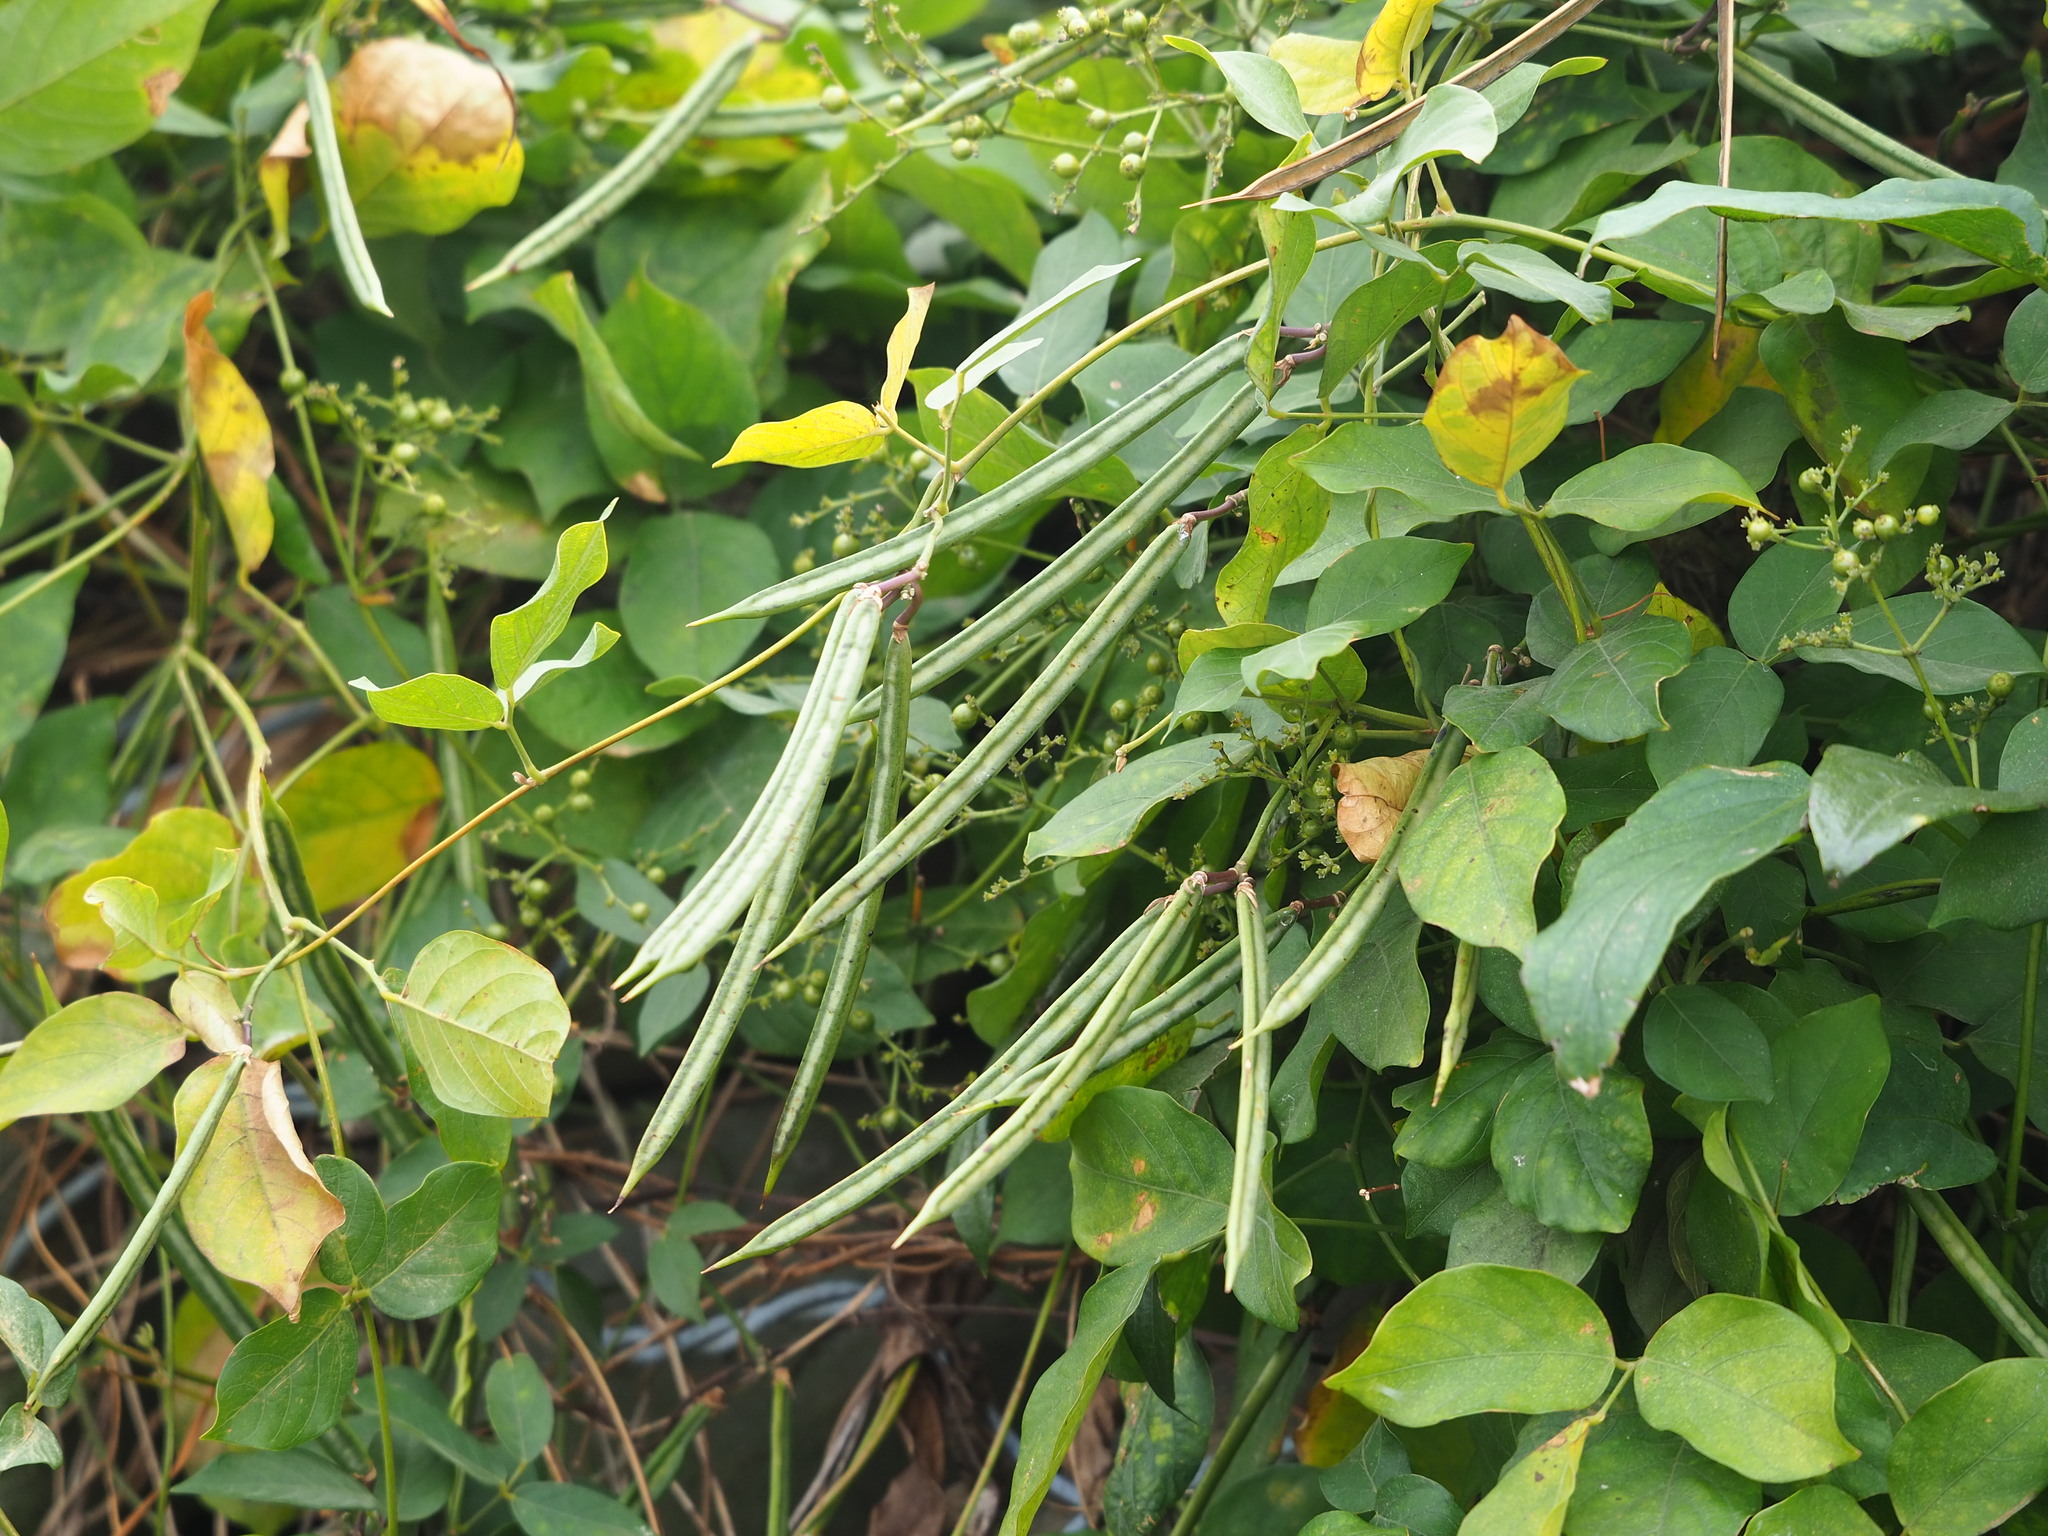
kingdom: Plantae
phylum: Tracheophyta
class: Magnoliopsida
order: Fabales
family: Fabaceae
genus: Centrosema
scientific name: Centrosema pubescens
